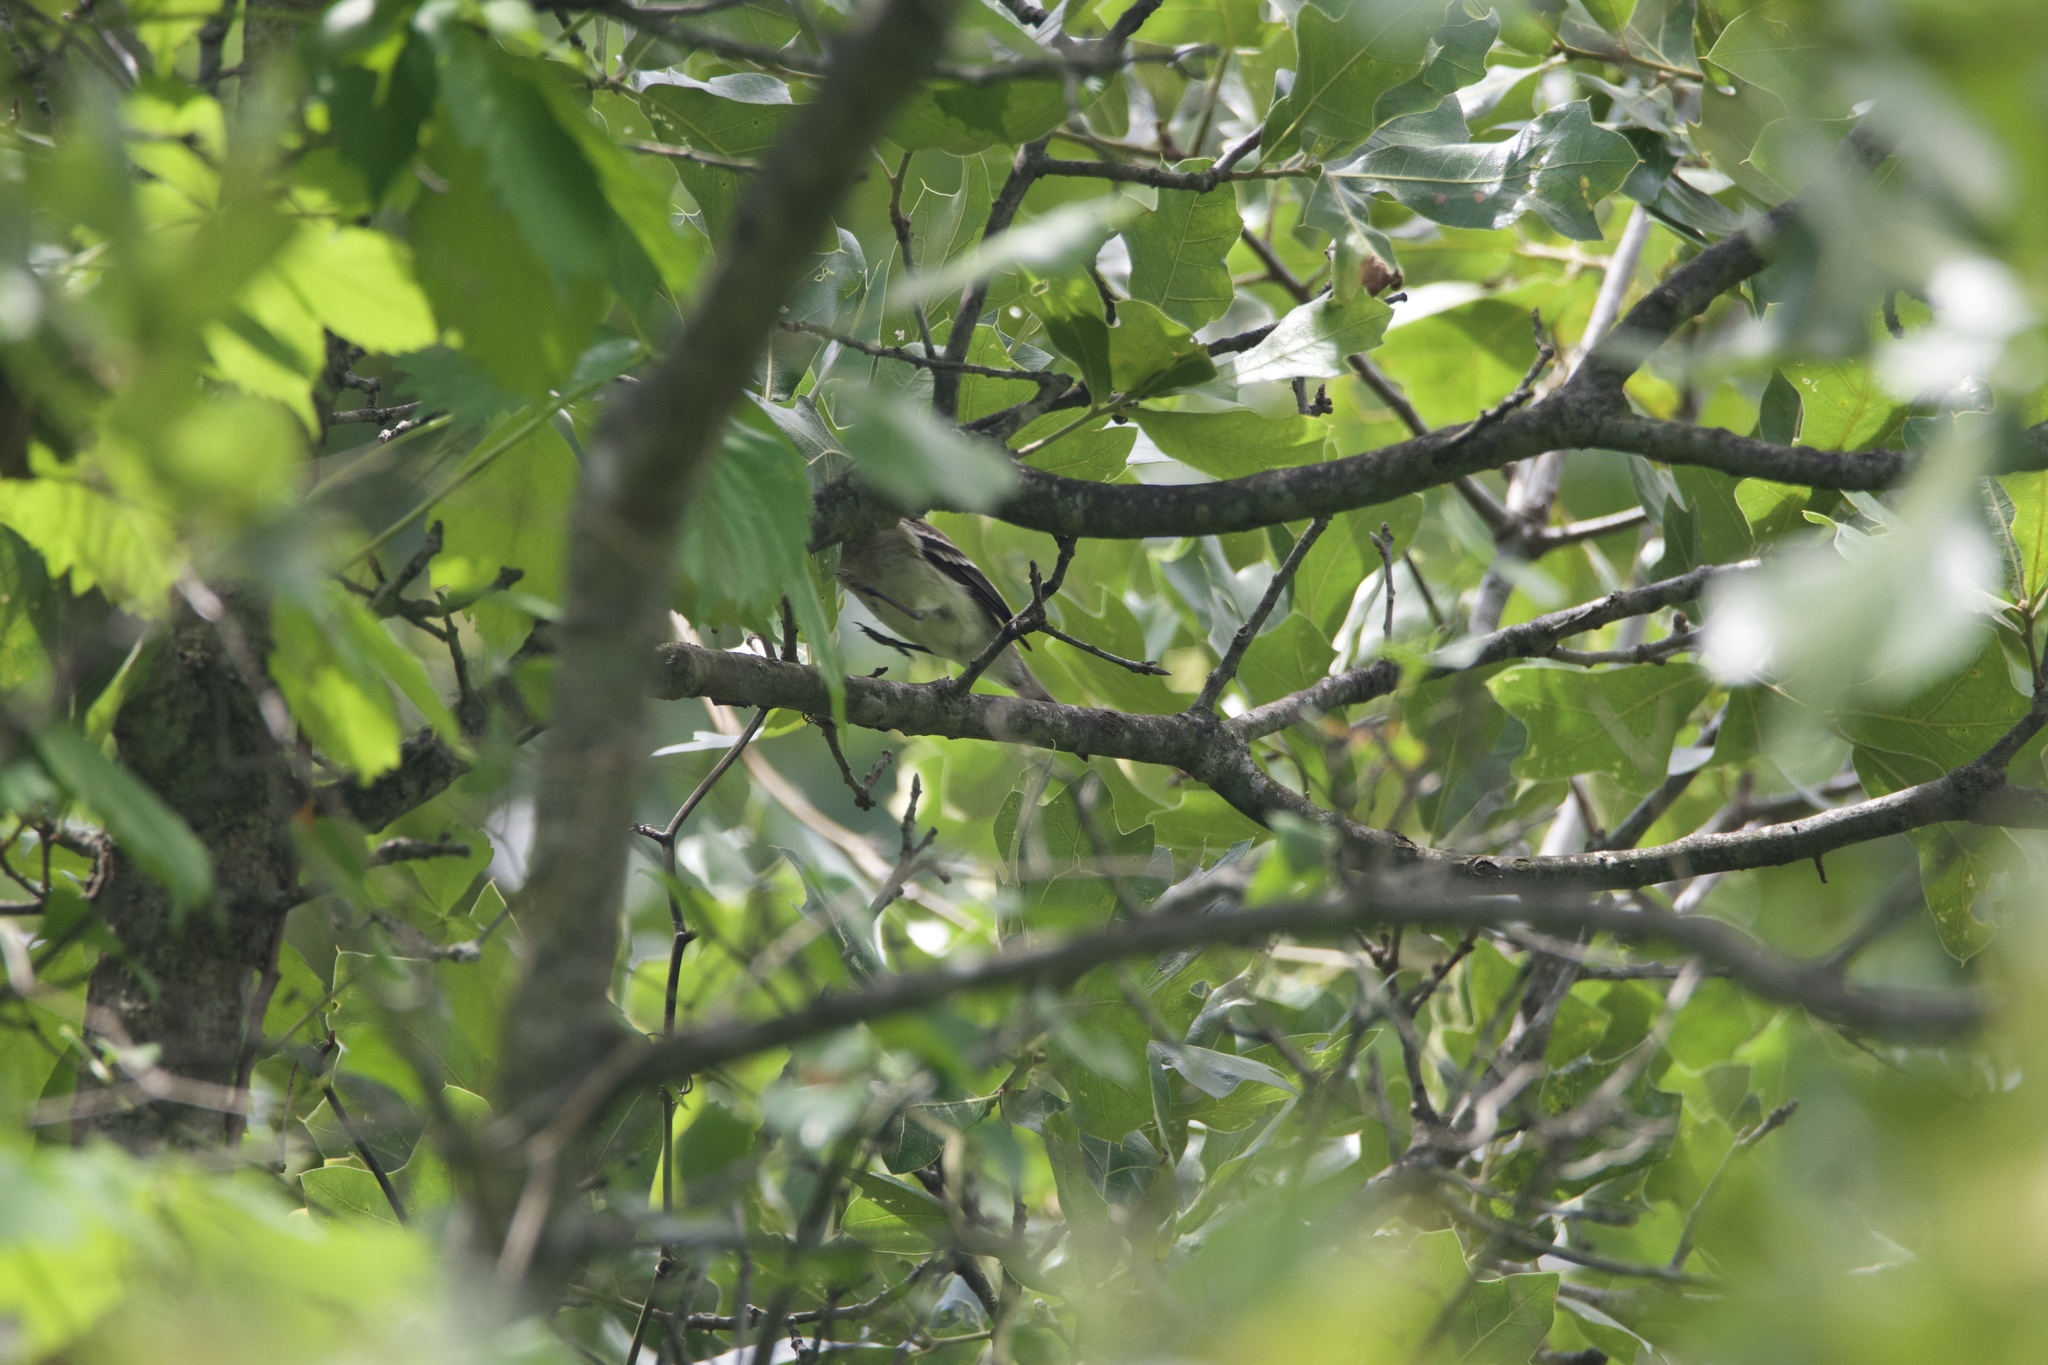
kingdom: Animalia
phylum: Chordata
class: Aves
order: Passeriformes
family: Vireonidae
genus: Vireo
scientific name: Vireo griseus
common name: White-eyed vireo
